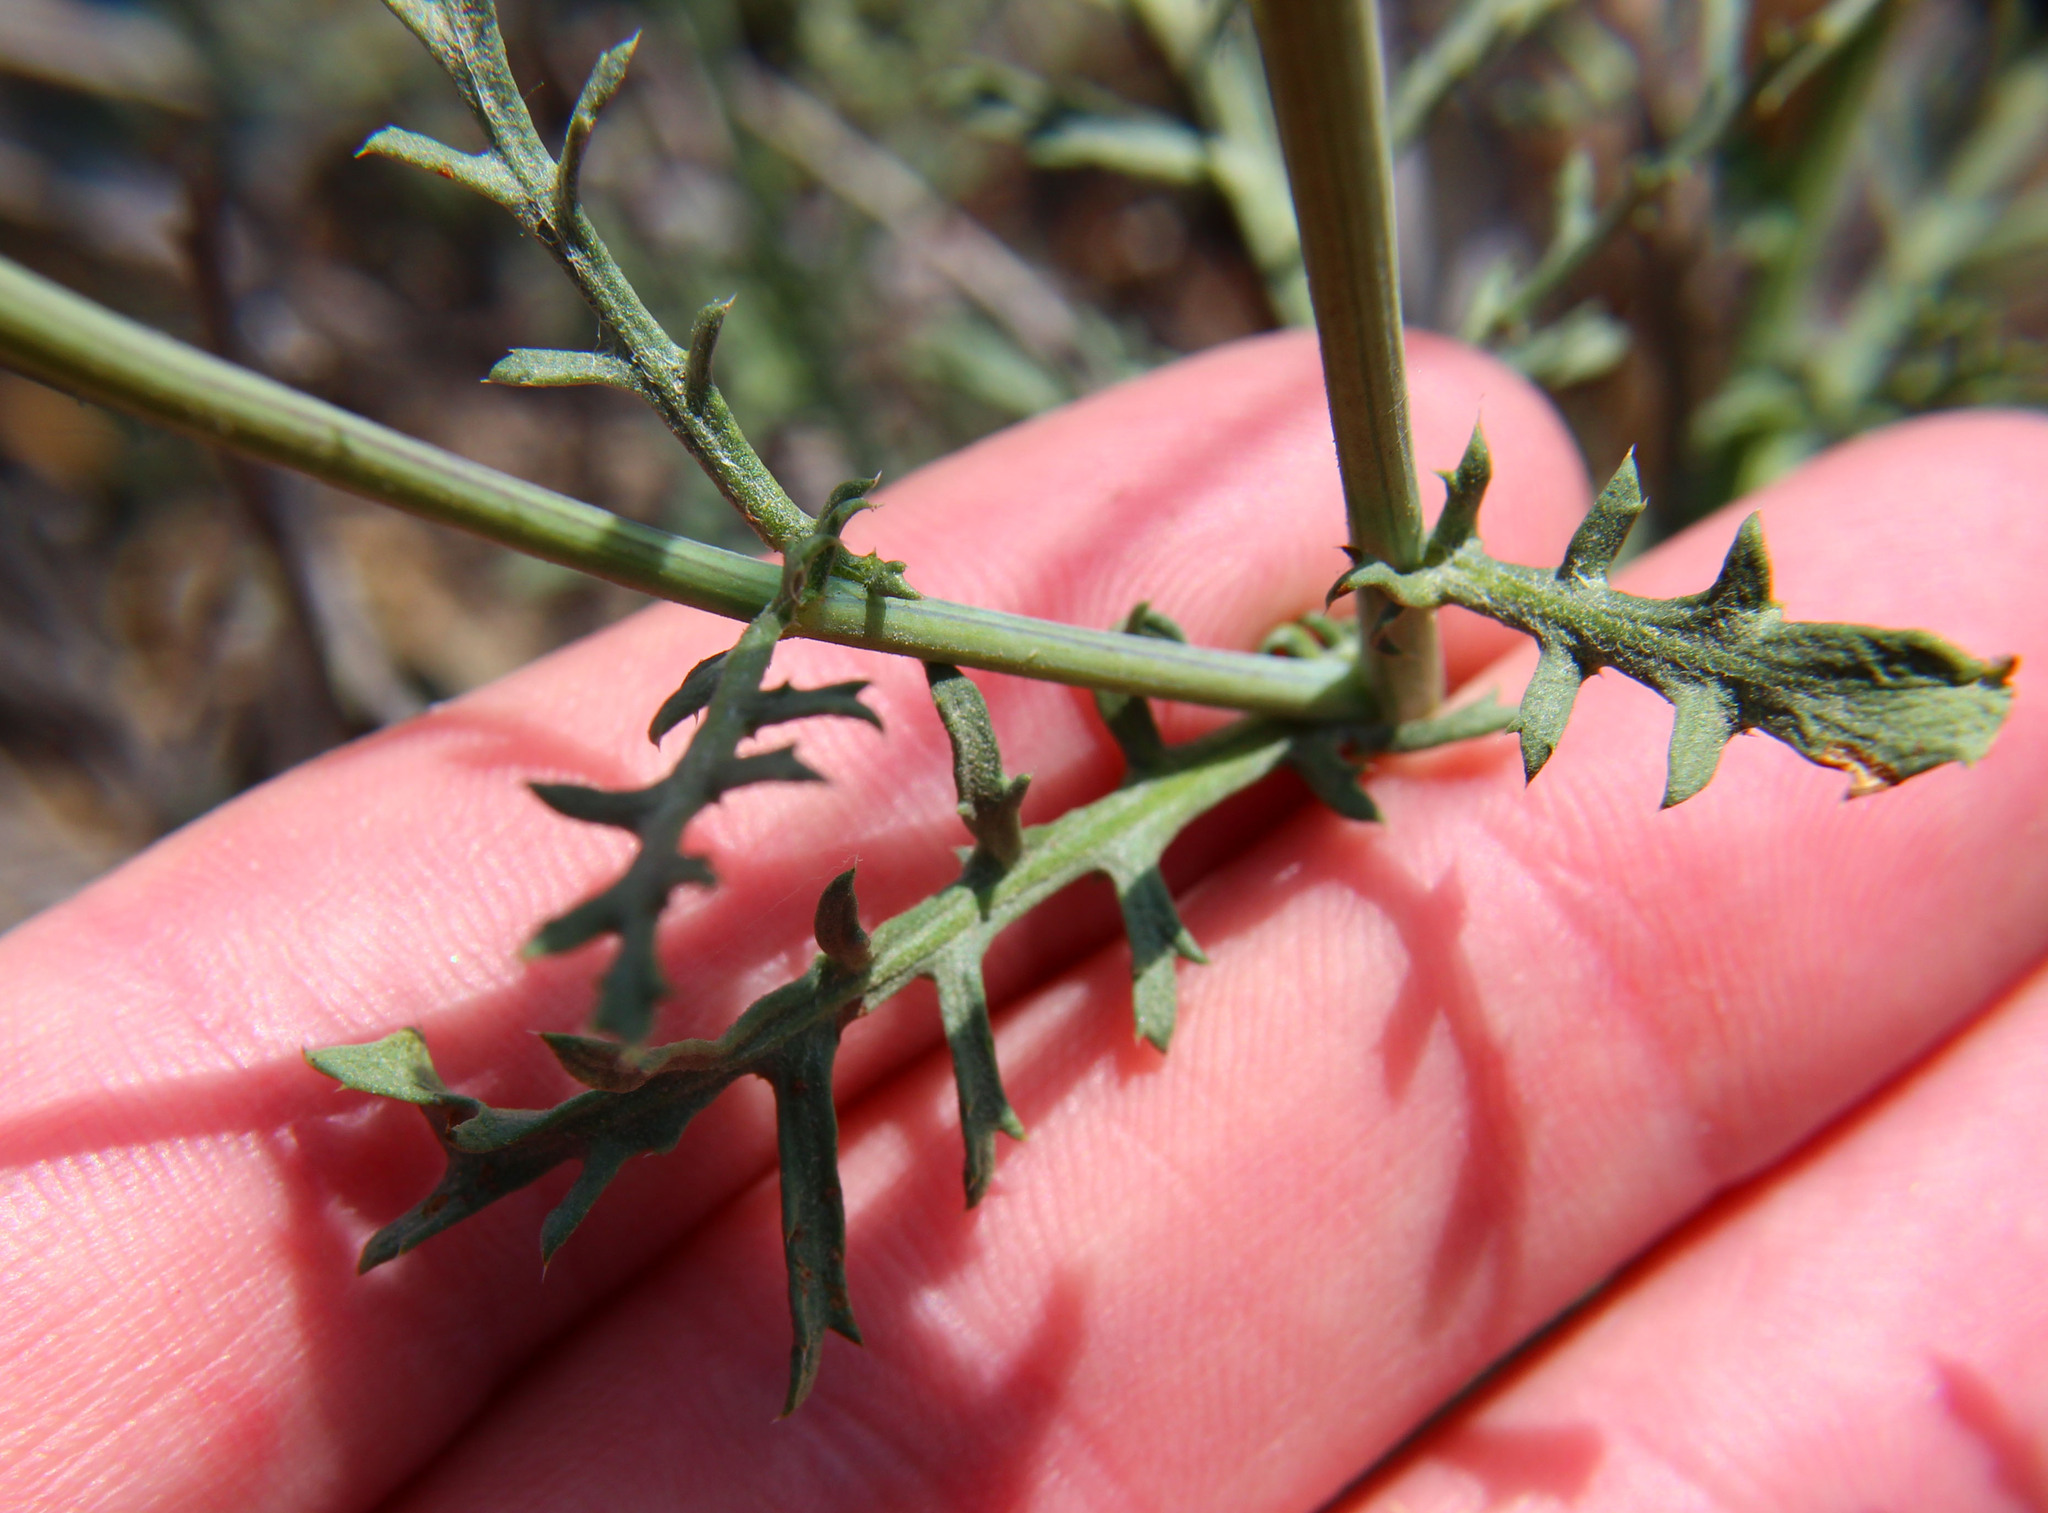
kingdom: Plantae
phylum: Tracheophyta
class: Magnoliopsida
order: Asterales
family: Asteraceae
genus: Glebionis
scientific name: Glebionis coronaria
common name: Crowndaisy
